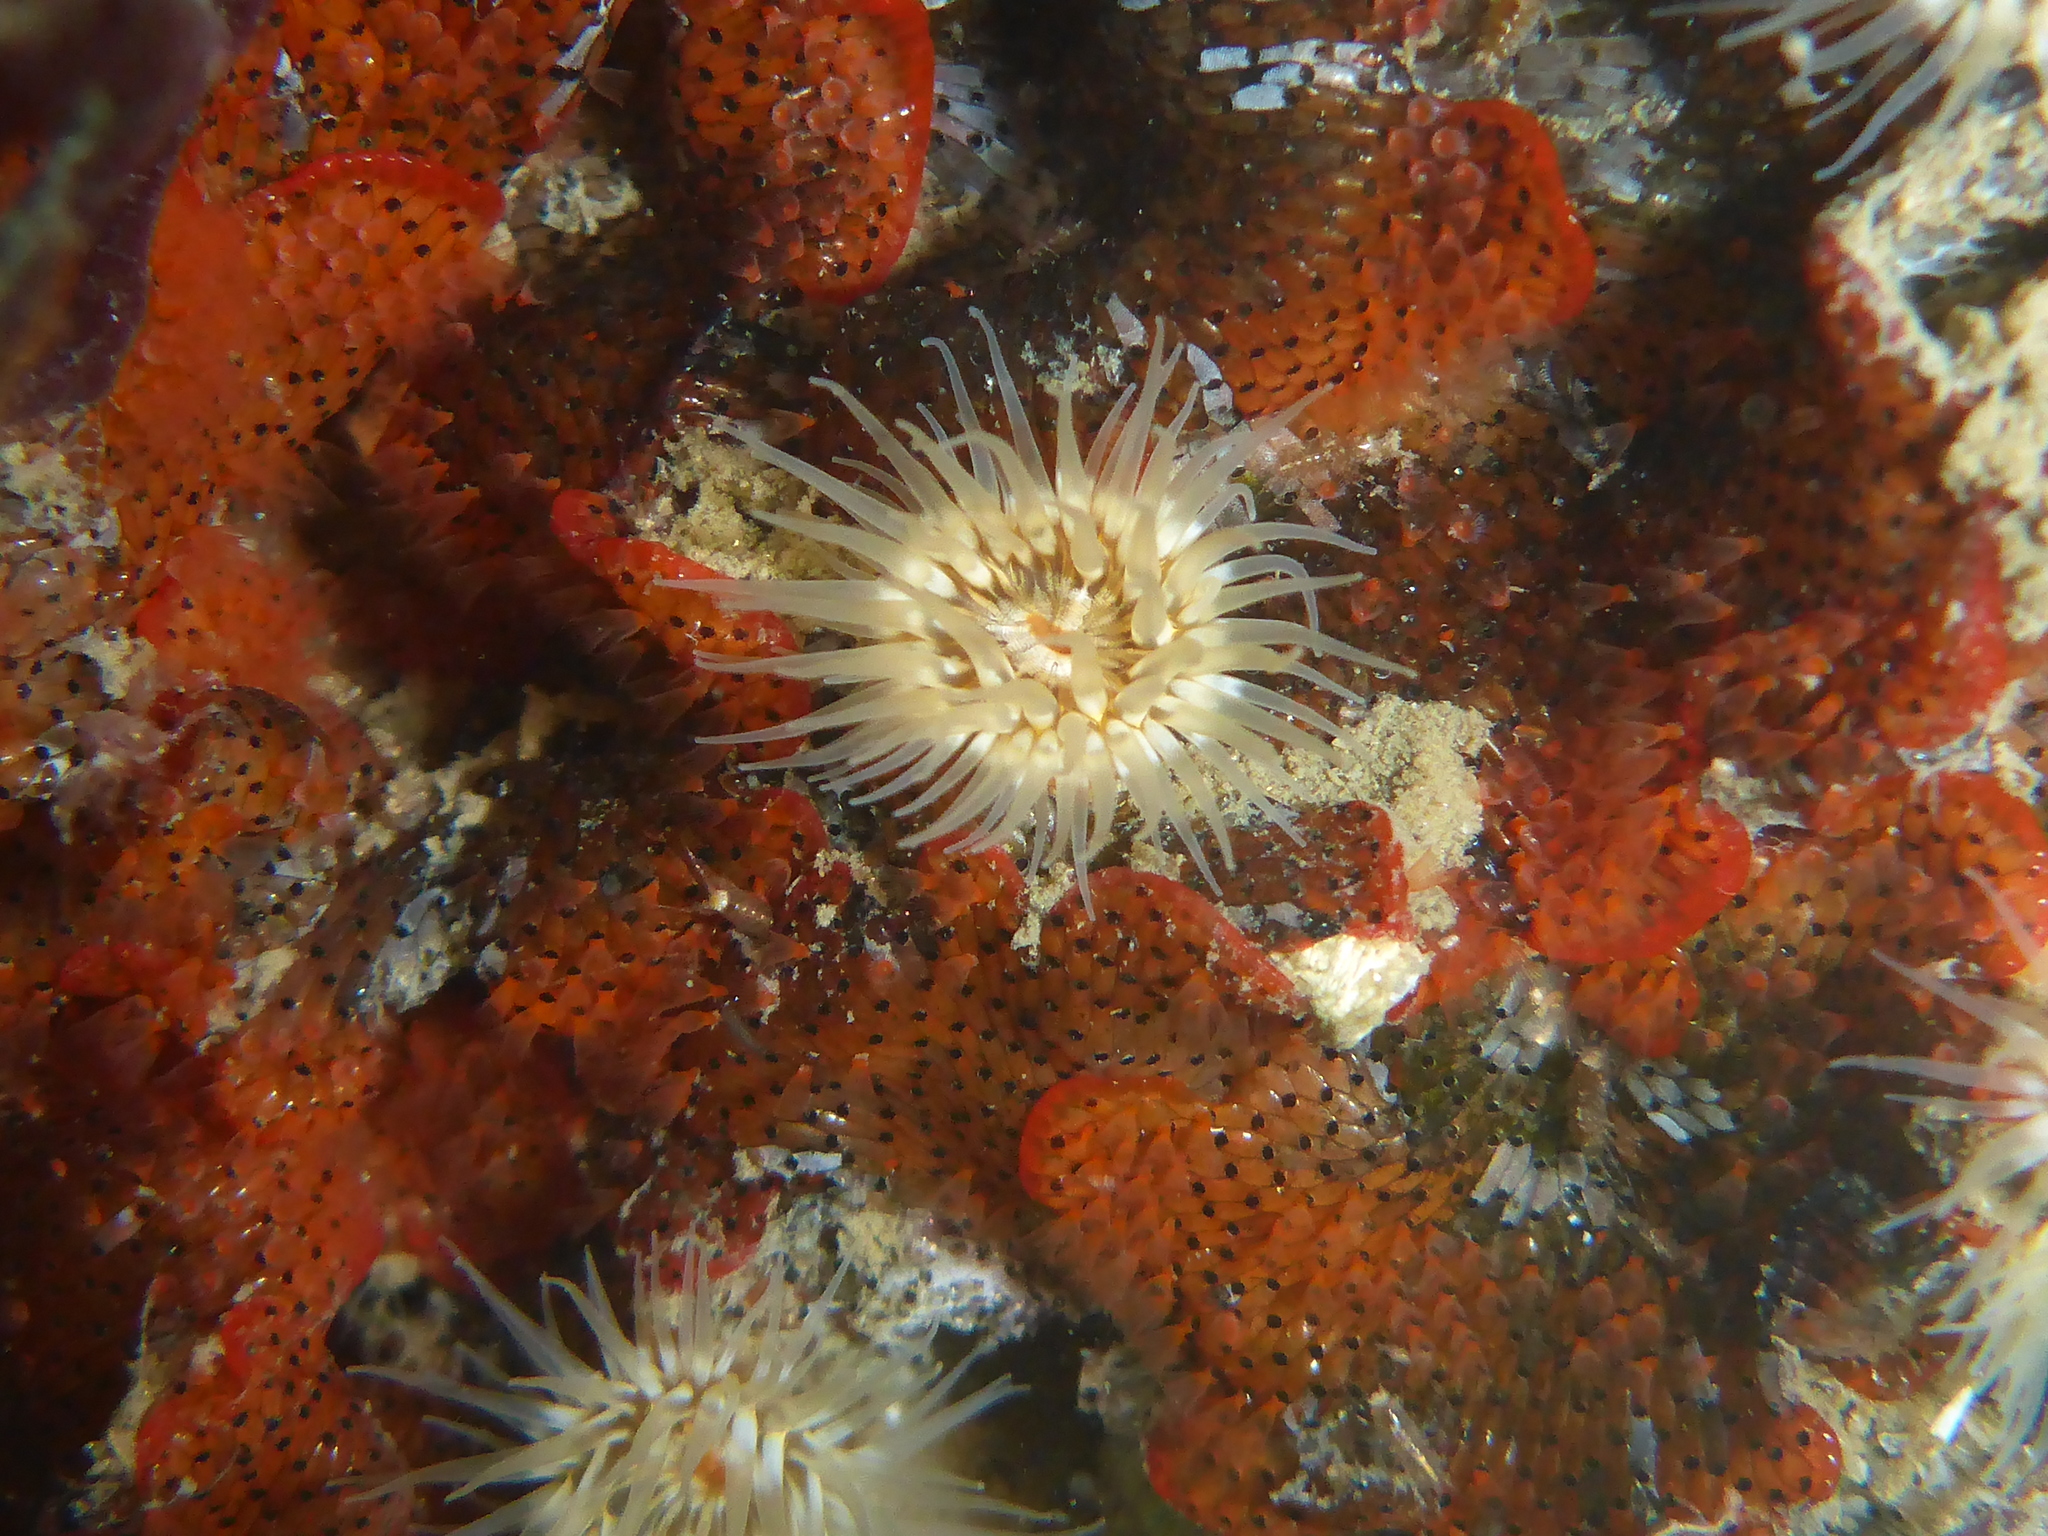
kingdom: Animalia
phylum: Cnidaria
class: Anthozoa
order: Actiniaria
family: Metridiidae
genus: Metridium
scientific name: Metridium exile
